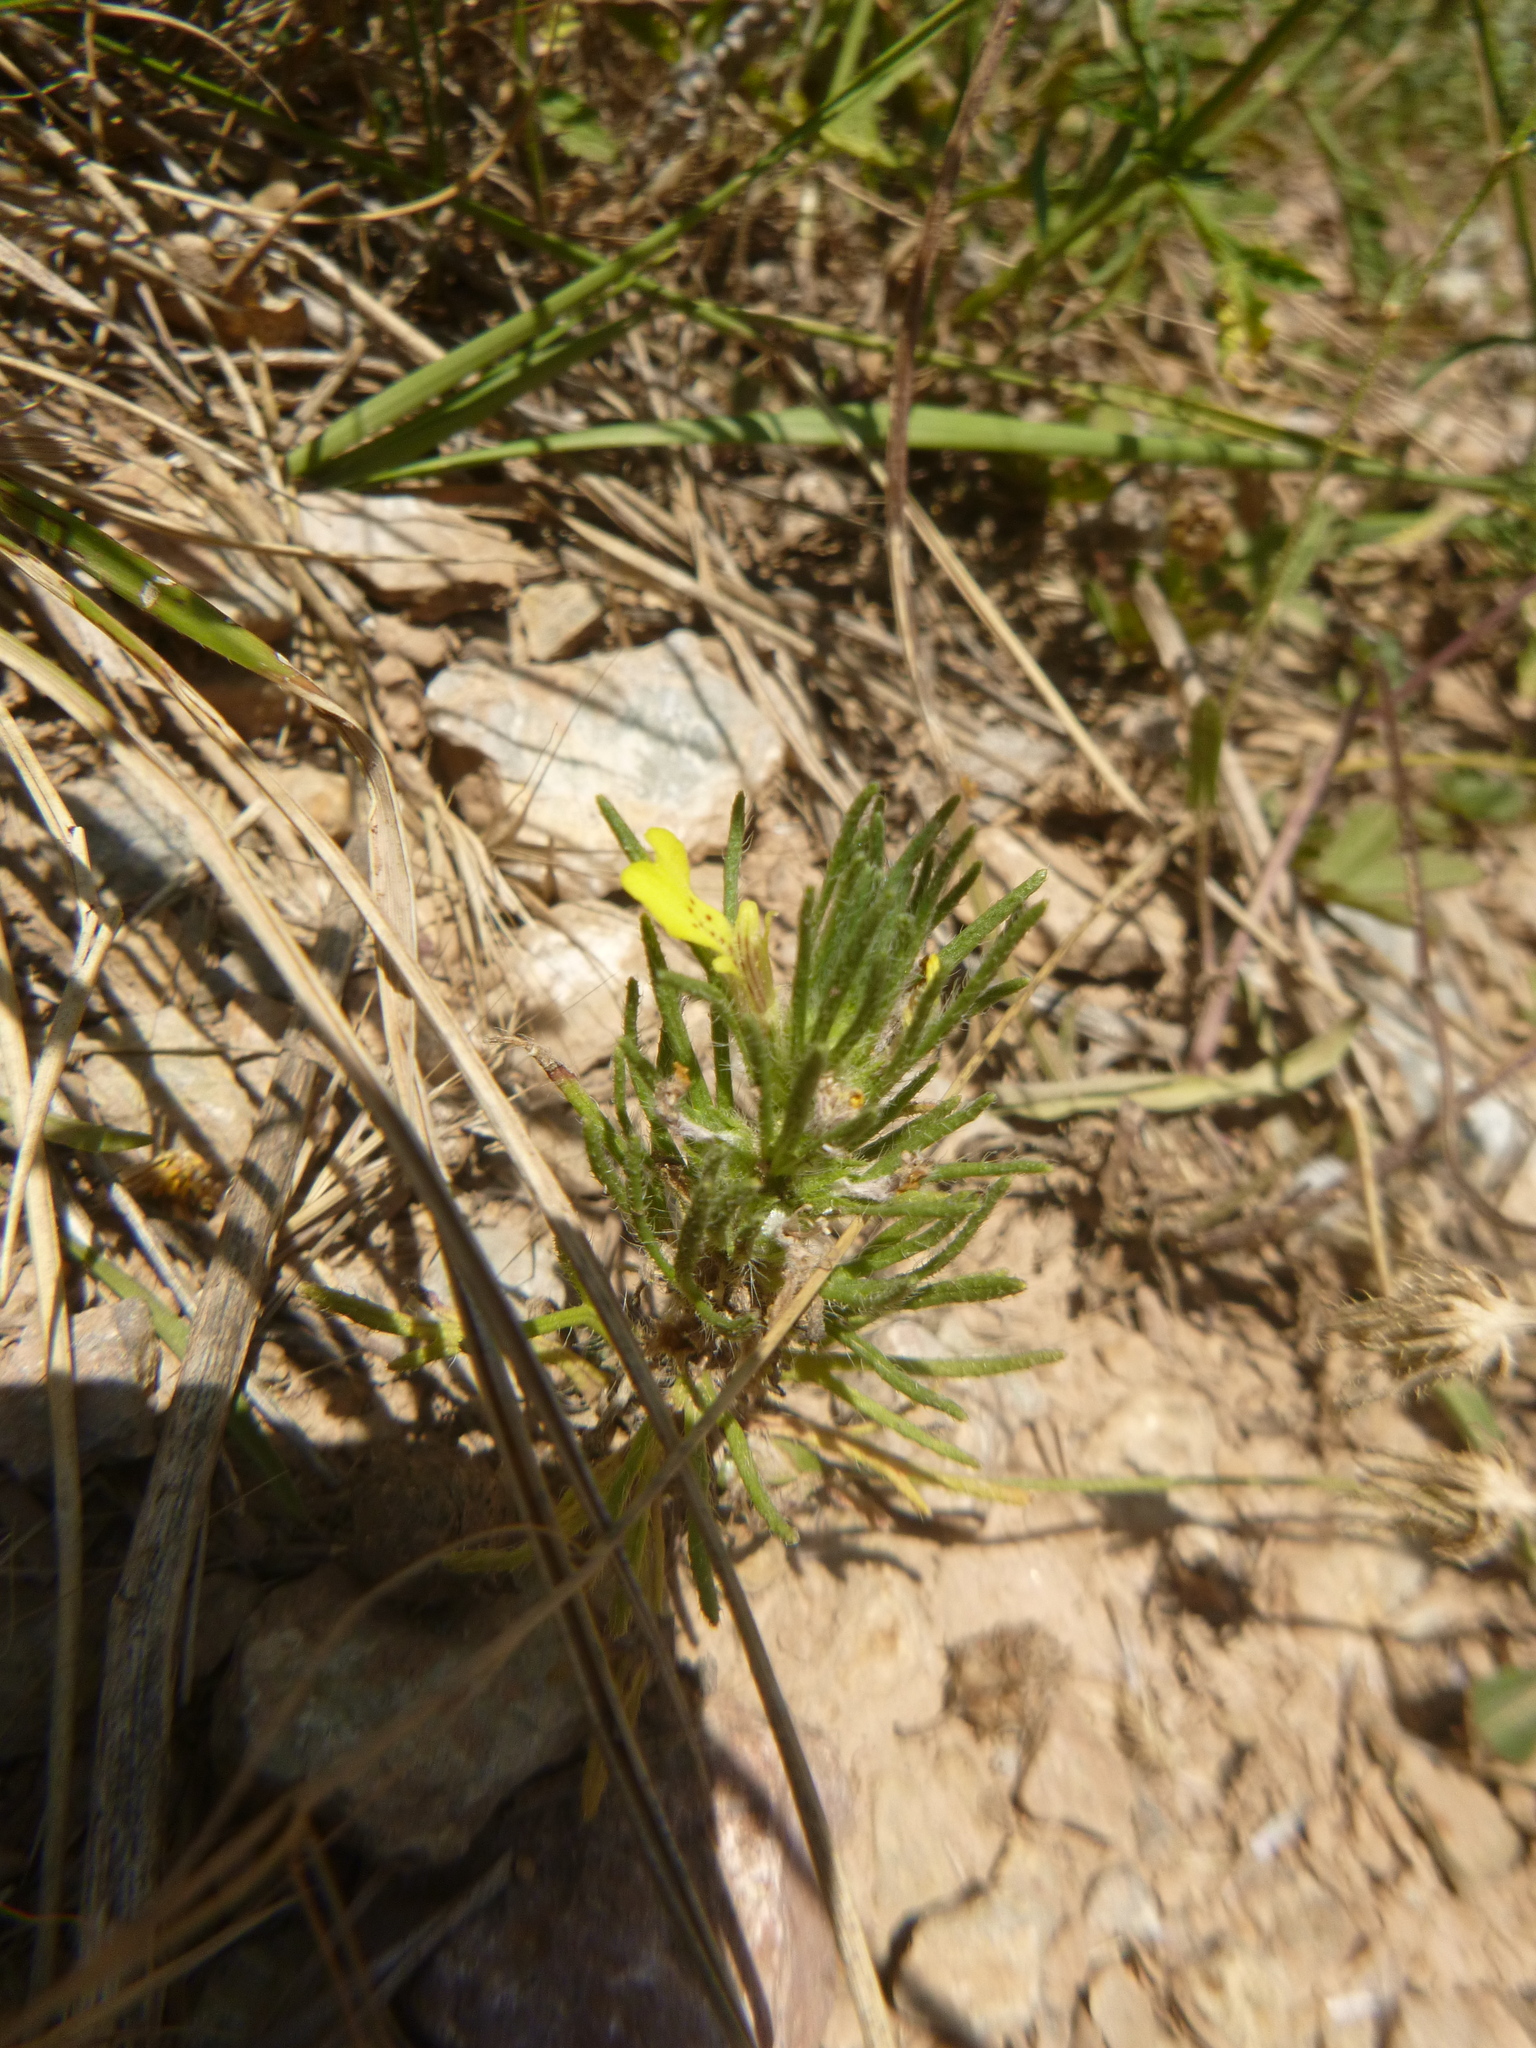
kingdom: Plantae
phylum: Tracheophyta
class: Magnoliopsida
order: Lamiales
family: Lamiaceae
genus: Ajuga
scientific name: Ajuga chamaepitys
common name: Ground-pine
